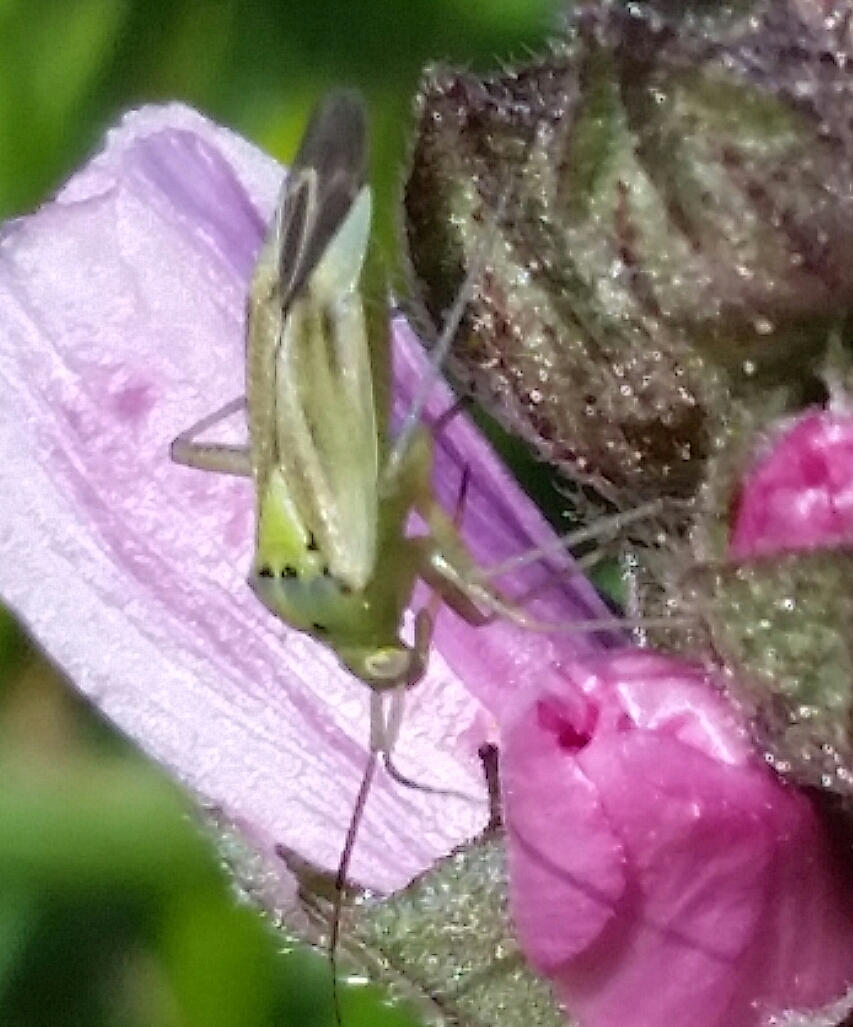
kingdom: Animalia
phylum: Arthropoda
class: Insecta
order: Hemiptera
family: Miridae
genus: Closterotomus
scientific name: Closterotomus norvegicus
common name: Plant bug
